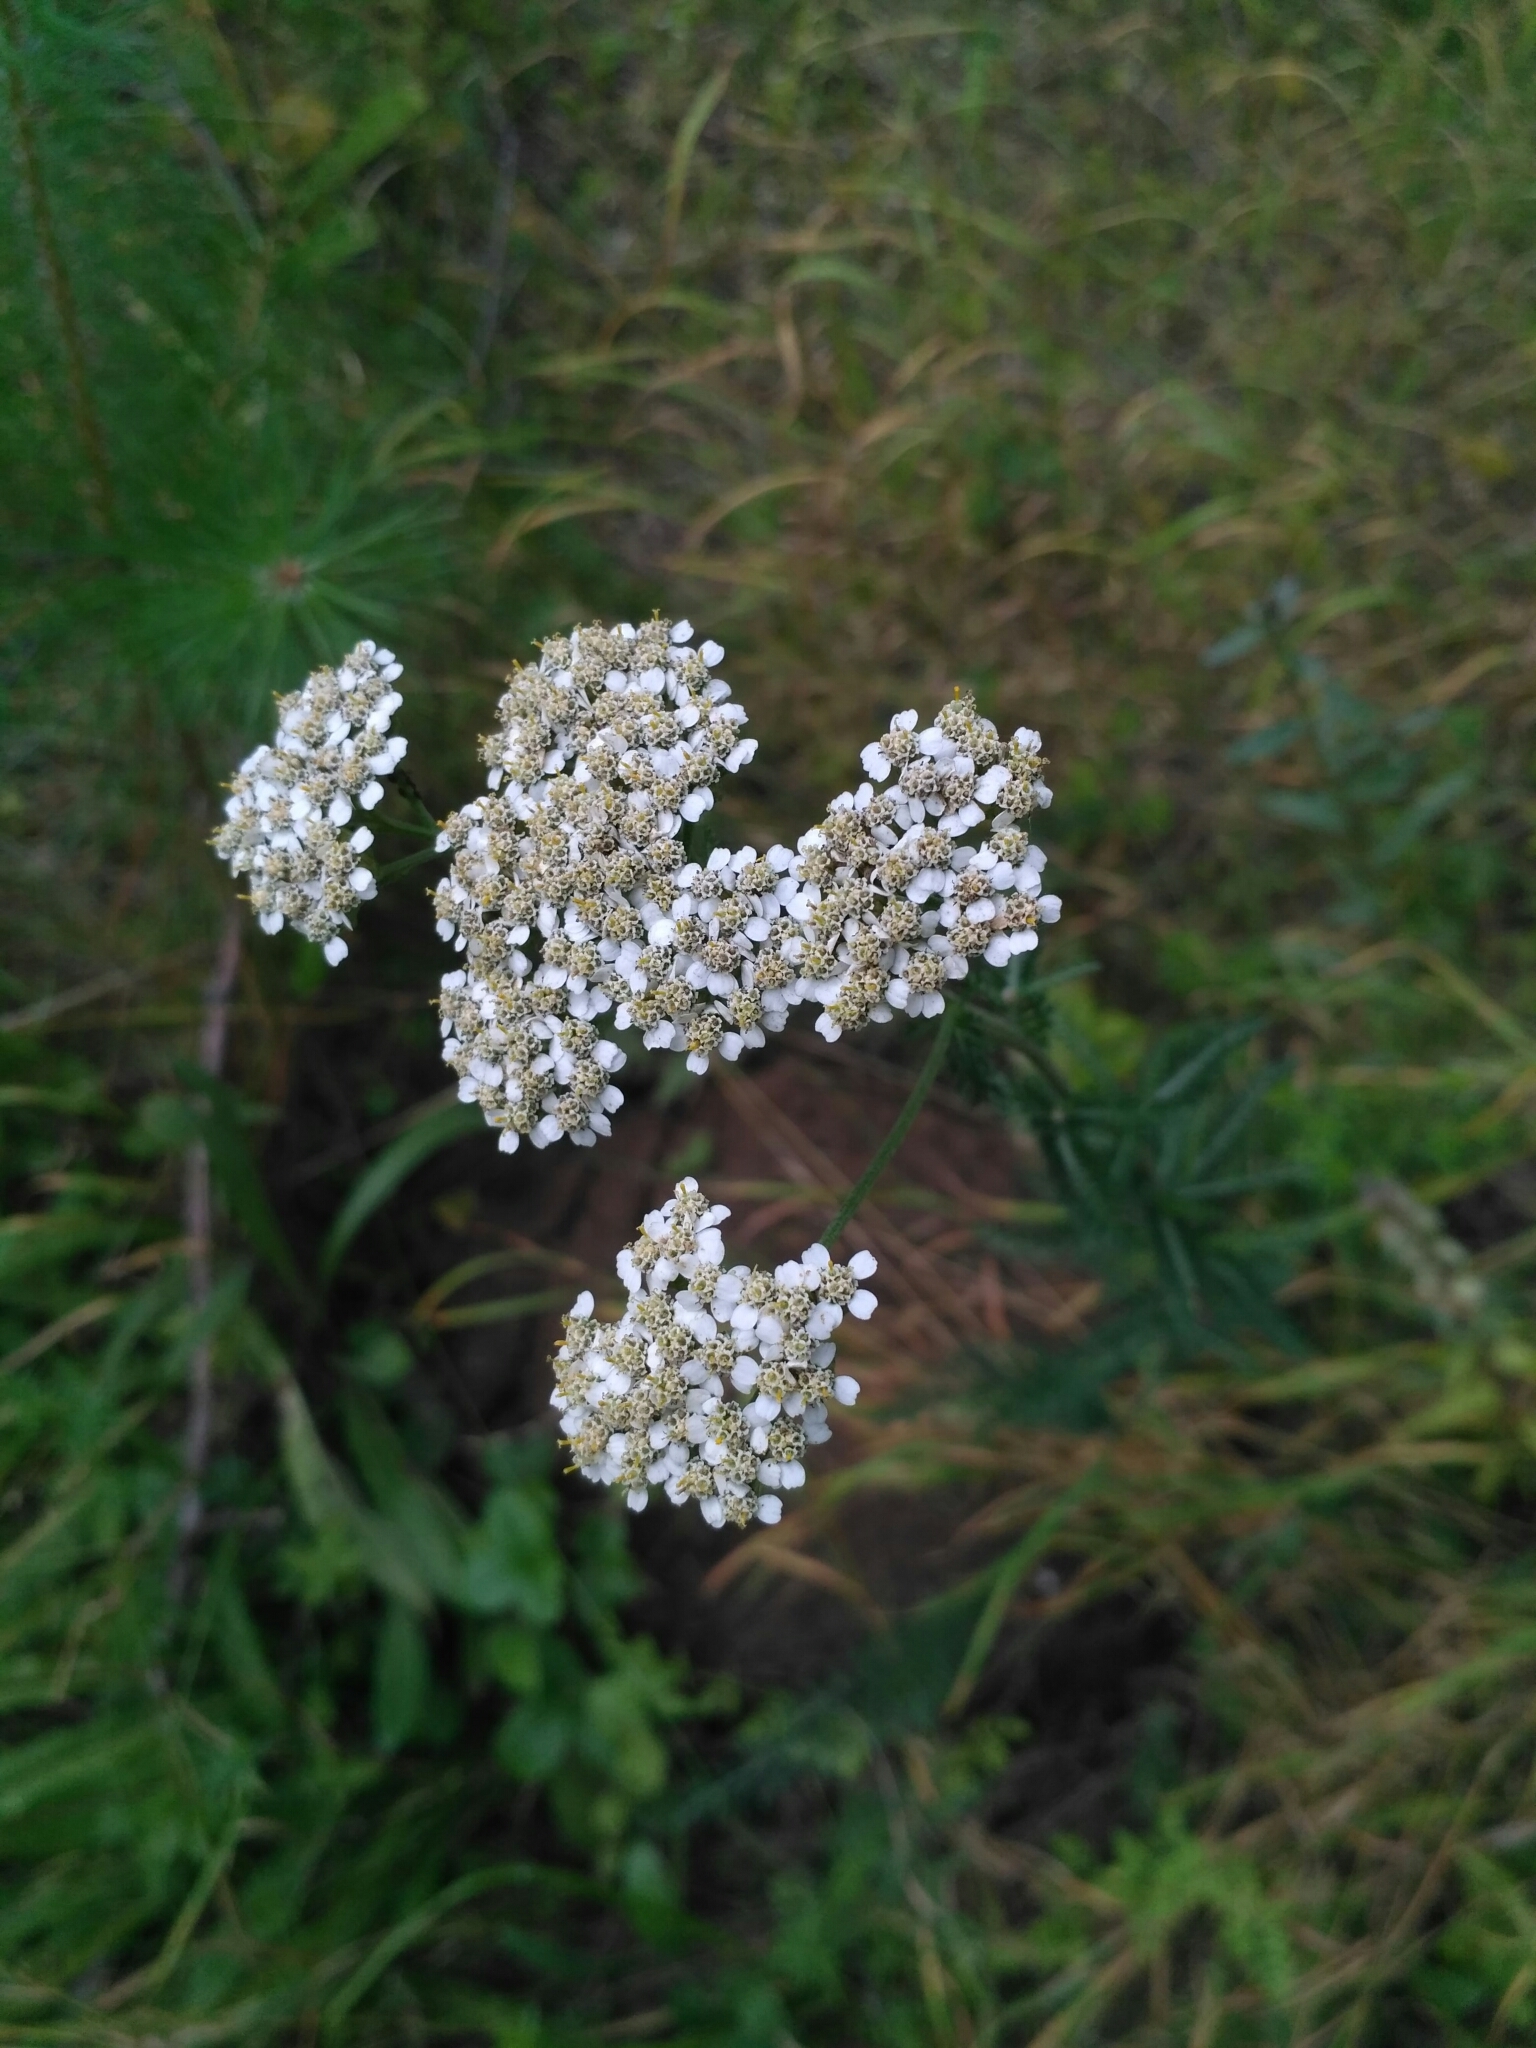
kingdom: Plantae
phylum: Tracheophyta
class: Magnoliopsida
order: Asterales
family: Asteraceae
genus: Achillea
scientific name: Achillea millefolium
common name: Yarrow
